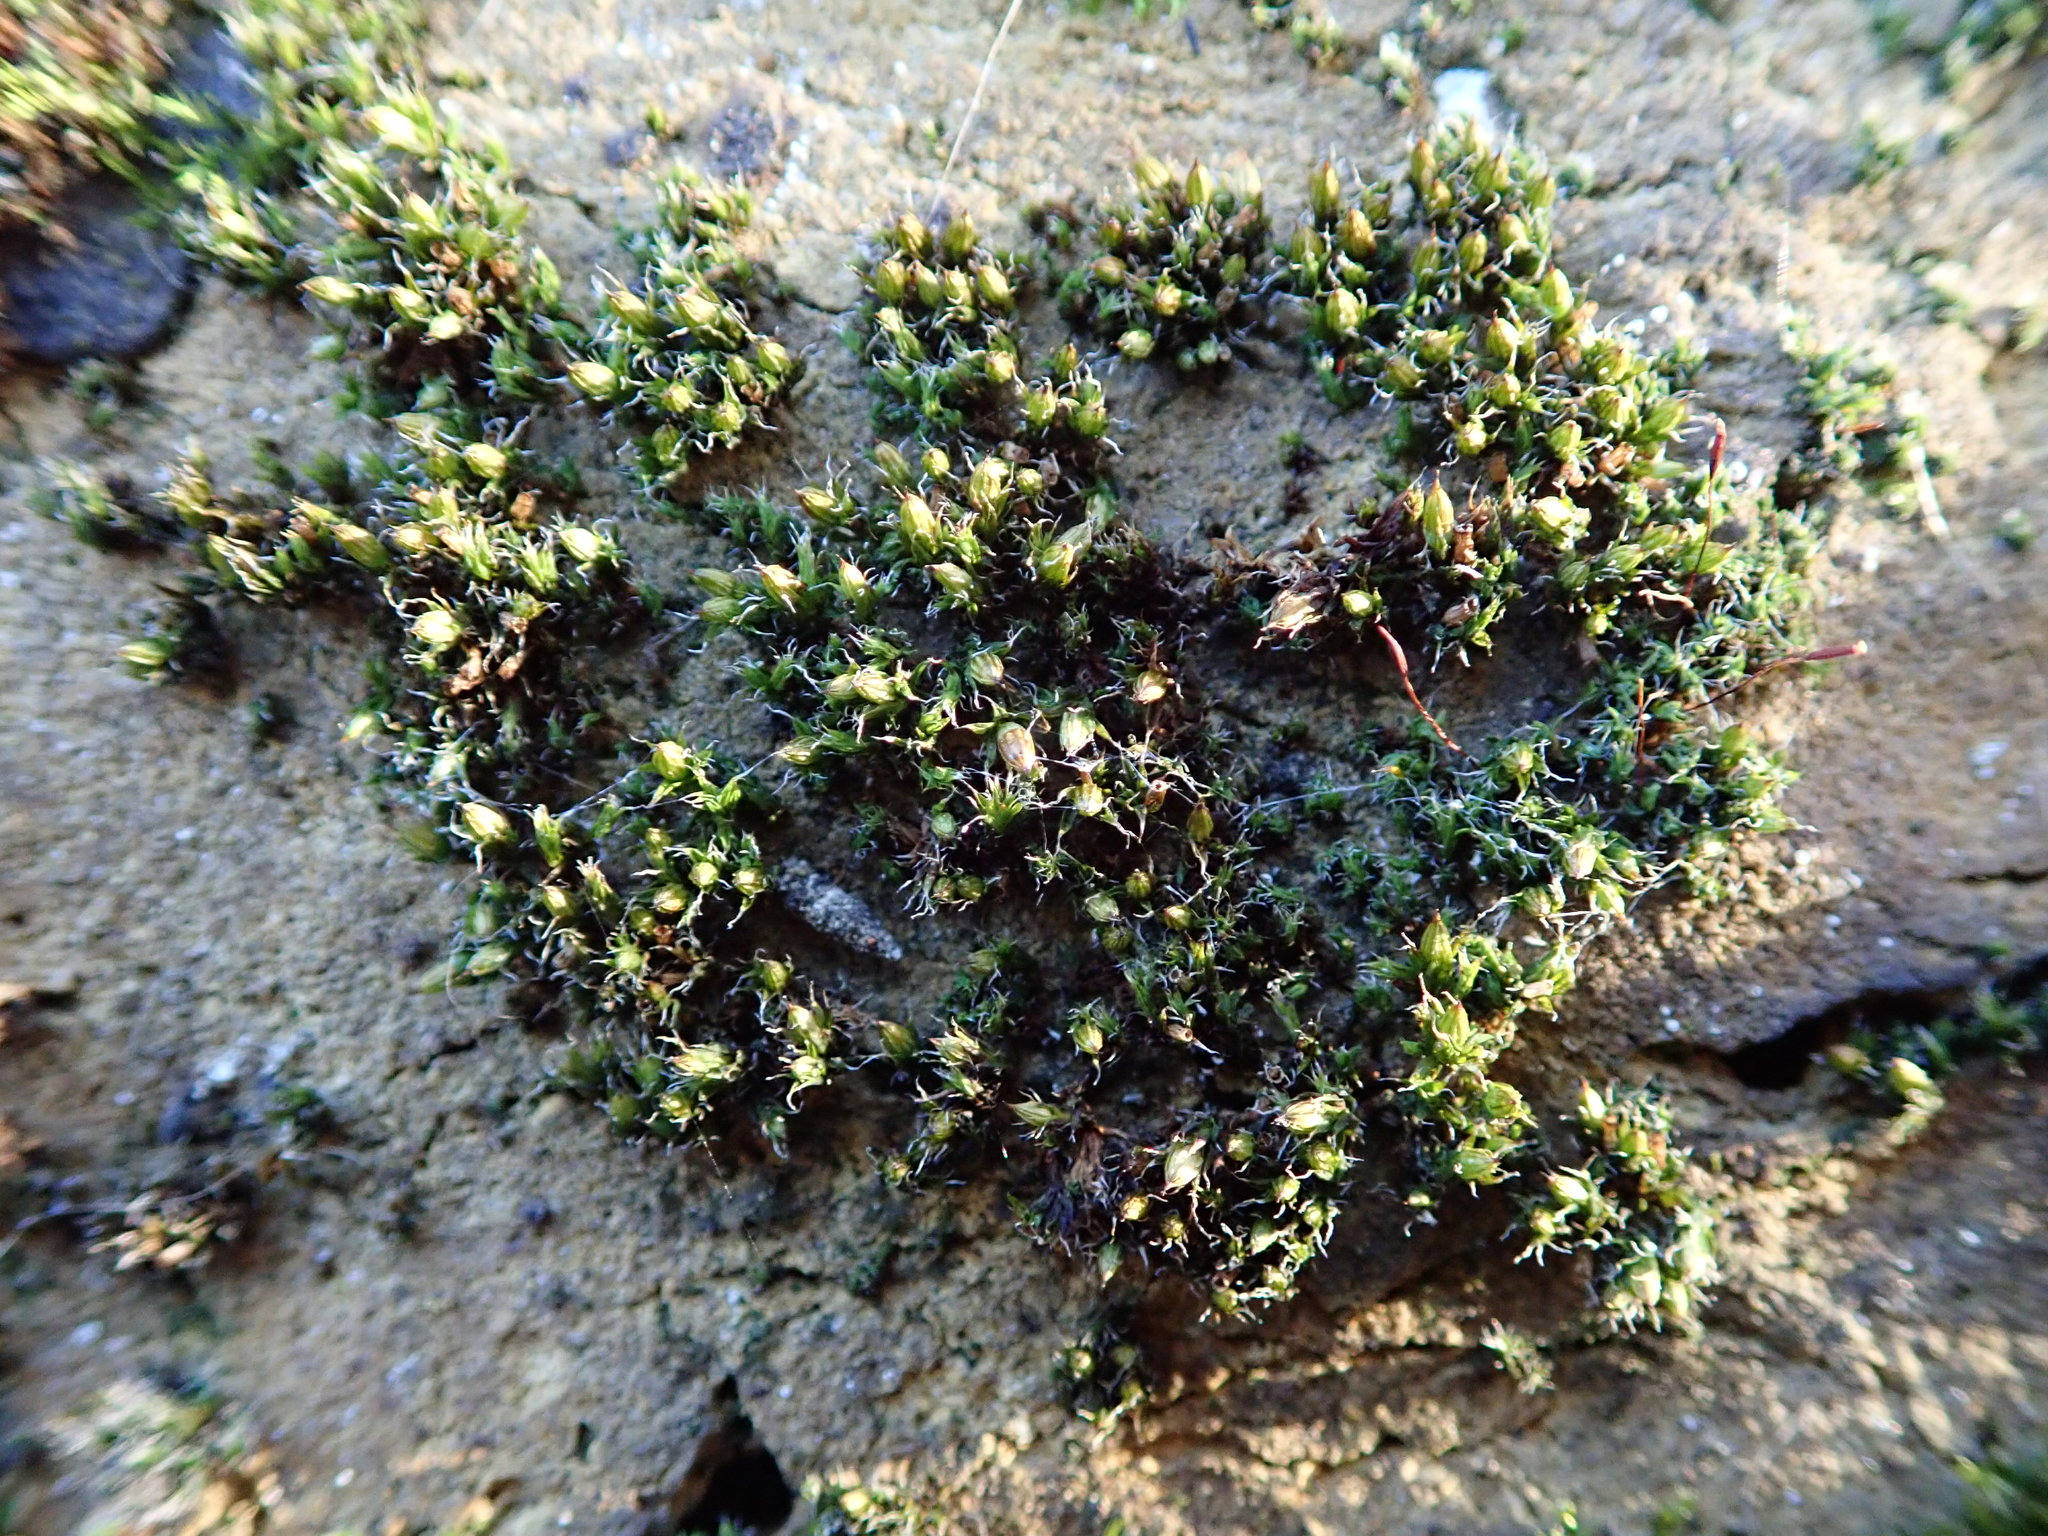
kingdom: Plantae
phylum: Bryophyta
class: Bryopsida
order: Orthotrichales
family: Orthotrichaceae
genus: Orthotrichum
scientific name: Orthotrichum diaphanum
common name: White-tipped bristle-moss
